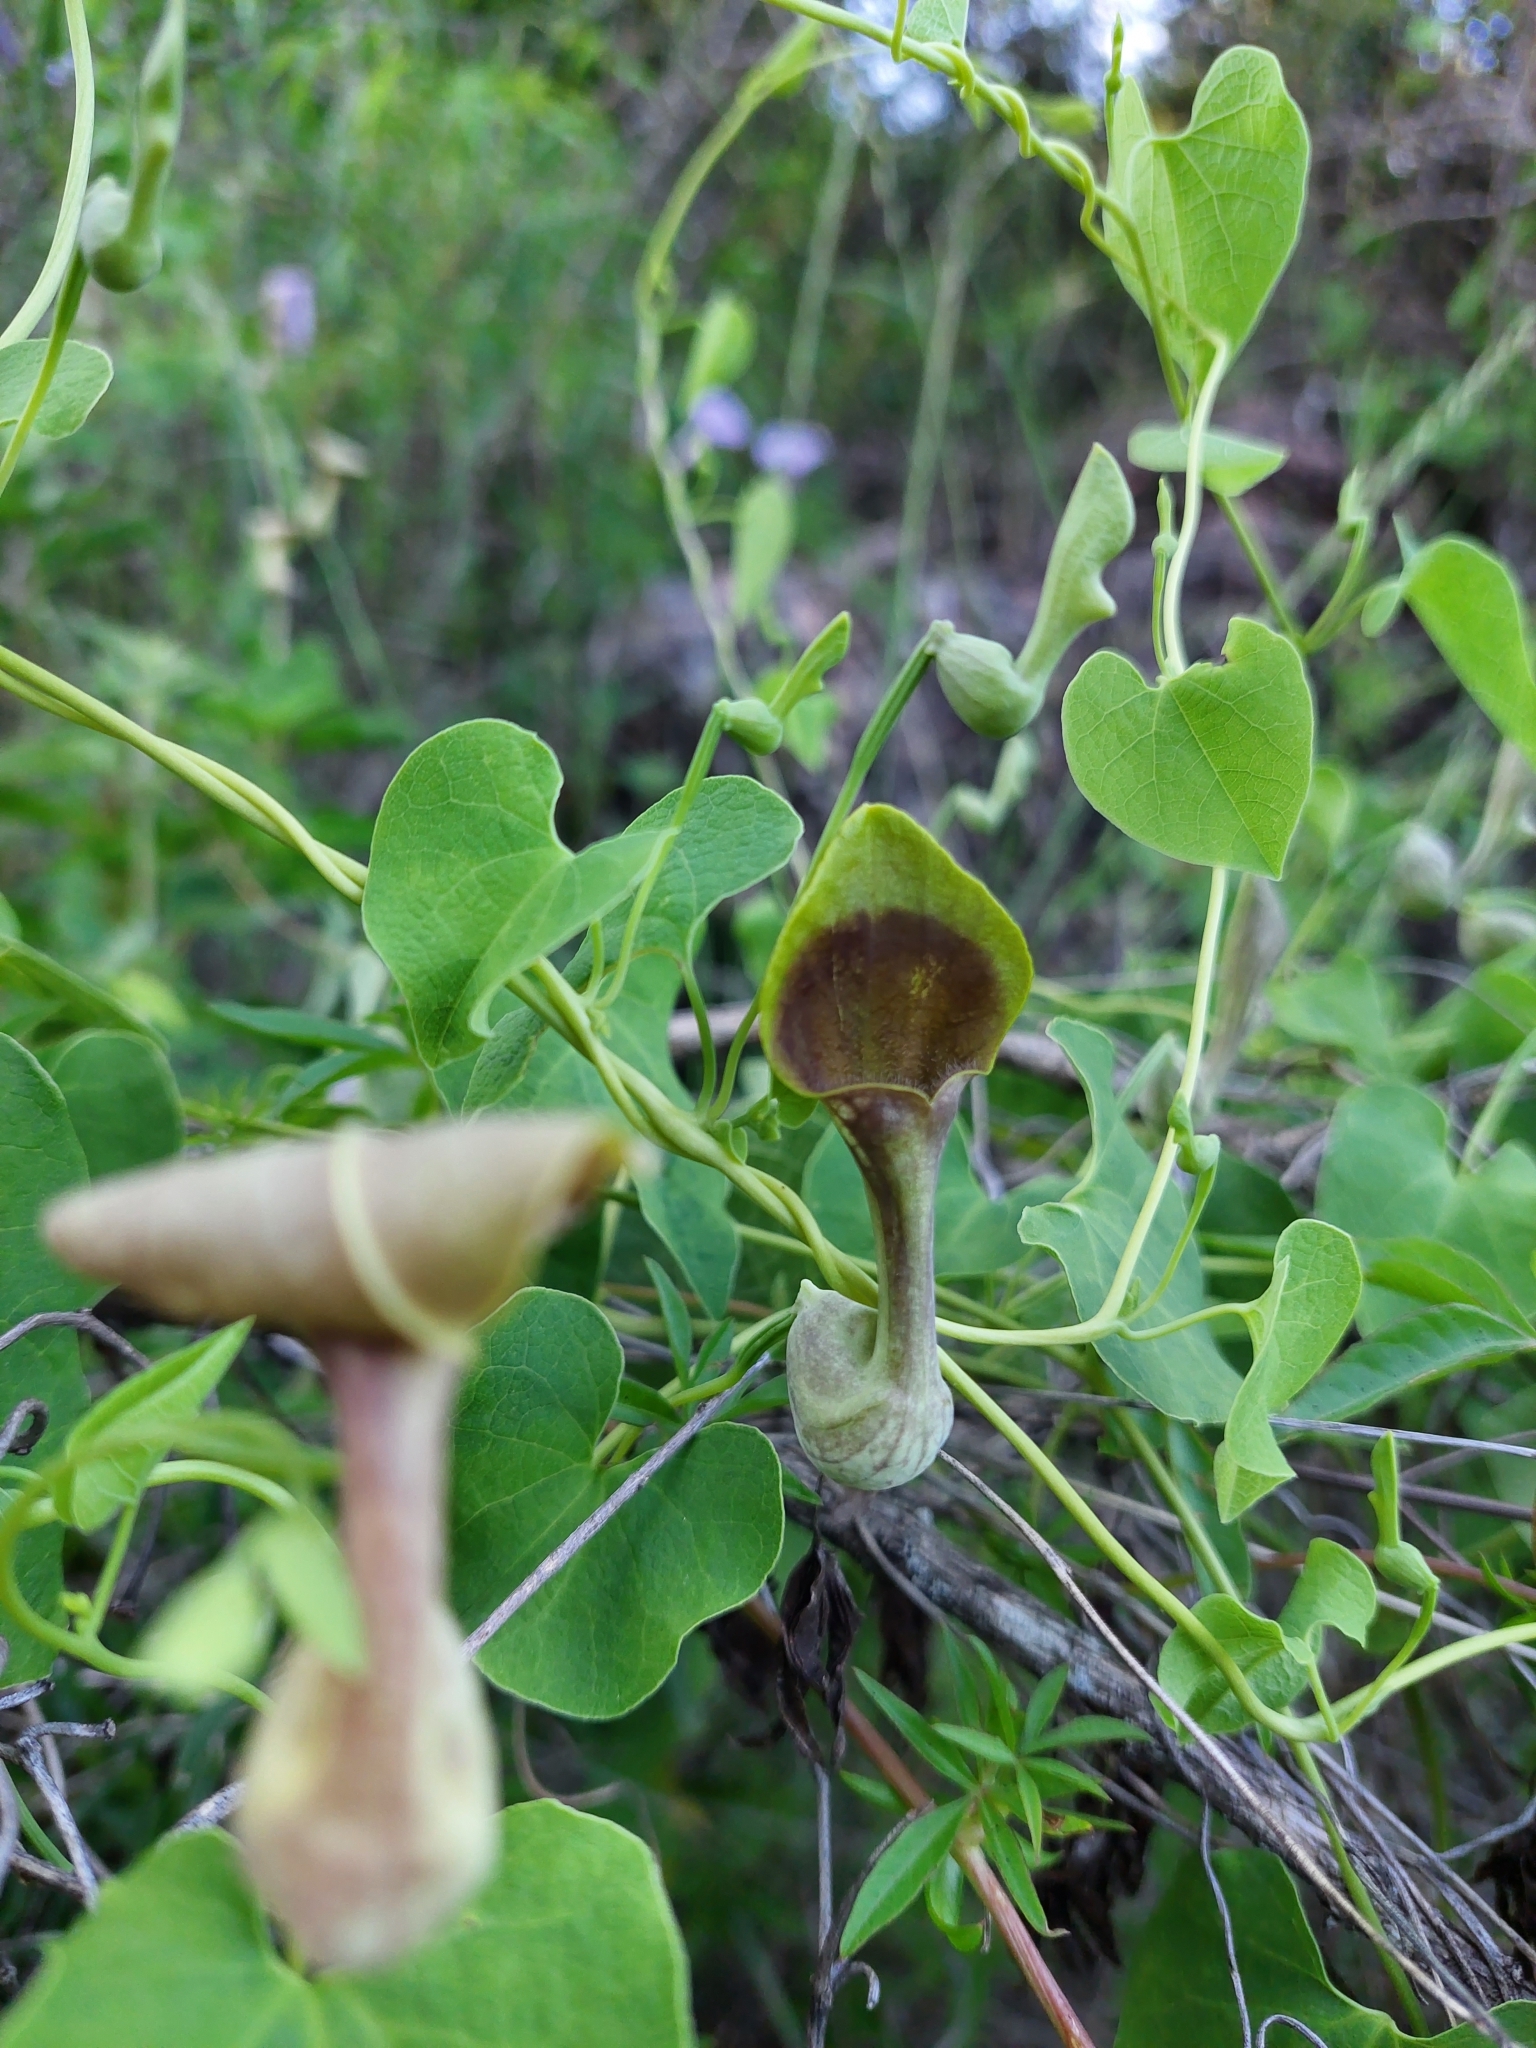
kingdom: Plantae
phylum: Tracheophyta
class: Magnoliopsida
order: Piperales
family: Aristolochiaceae
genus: Aristolochia
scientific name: Aristolochia argentina
